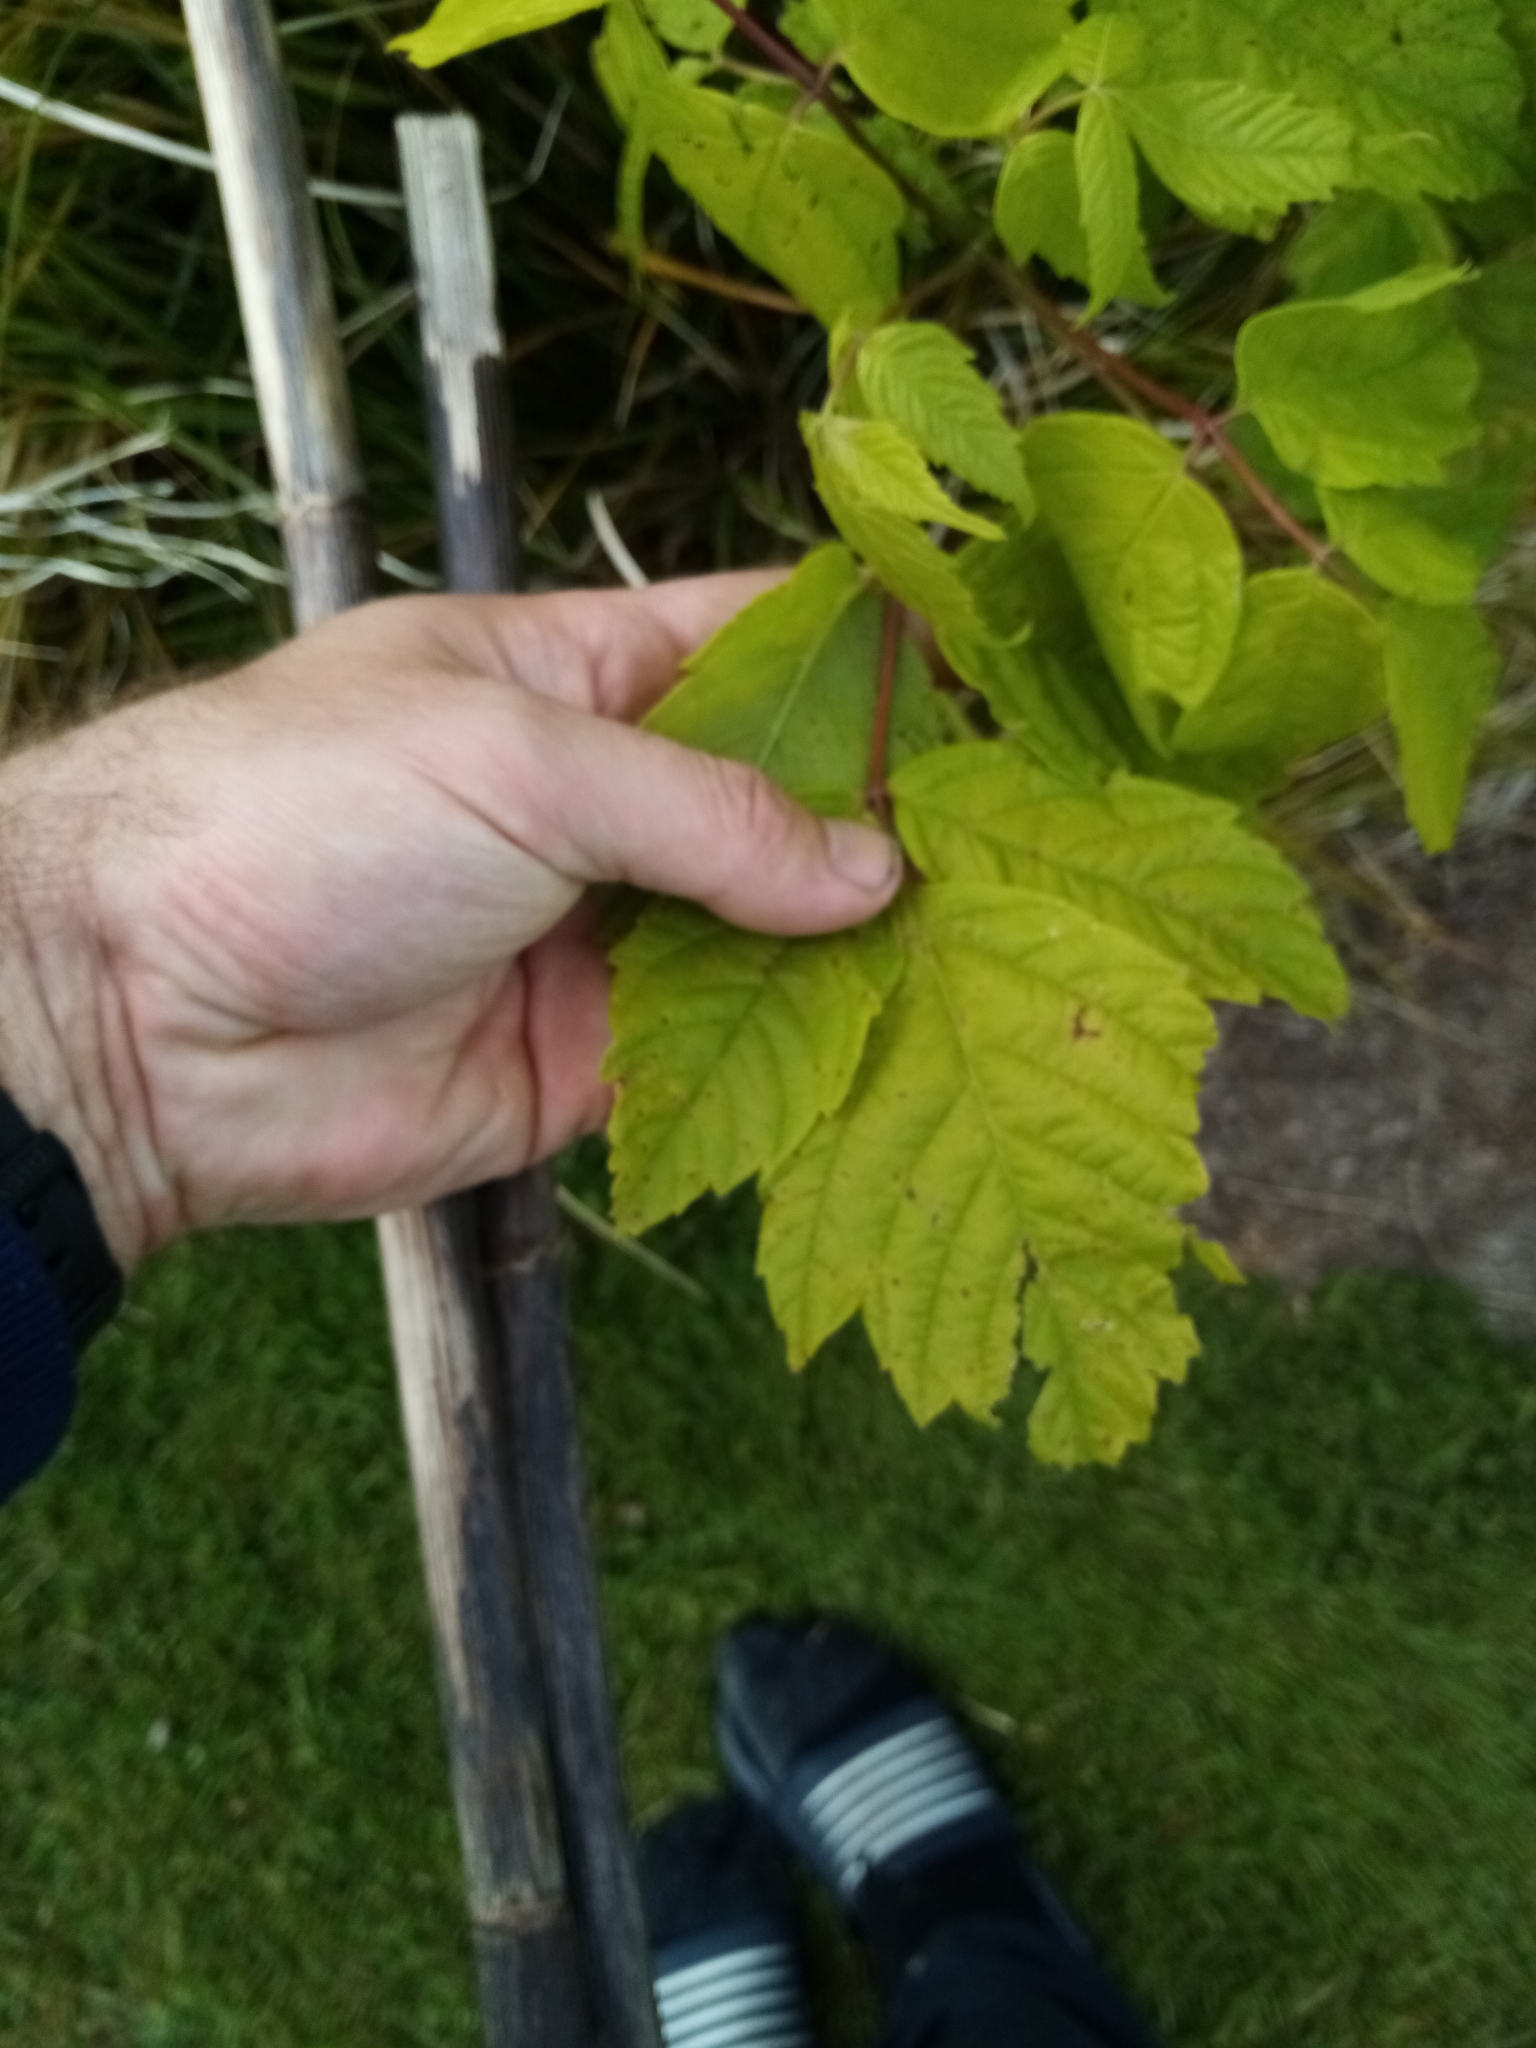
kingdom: Plantae
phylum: Tracheophyta
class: Magnoliopsida
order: Sapindales
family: Sapindaceae
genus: Acer
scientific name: Acer negundo
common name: Ashleaf maple
